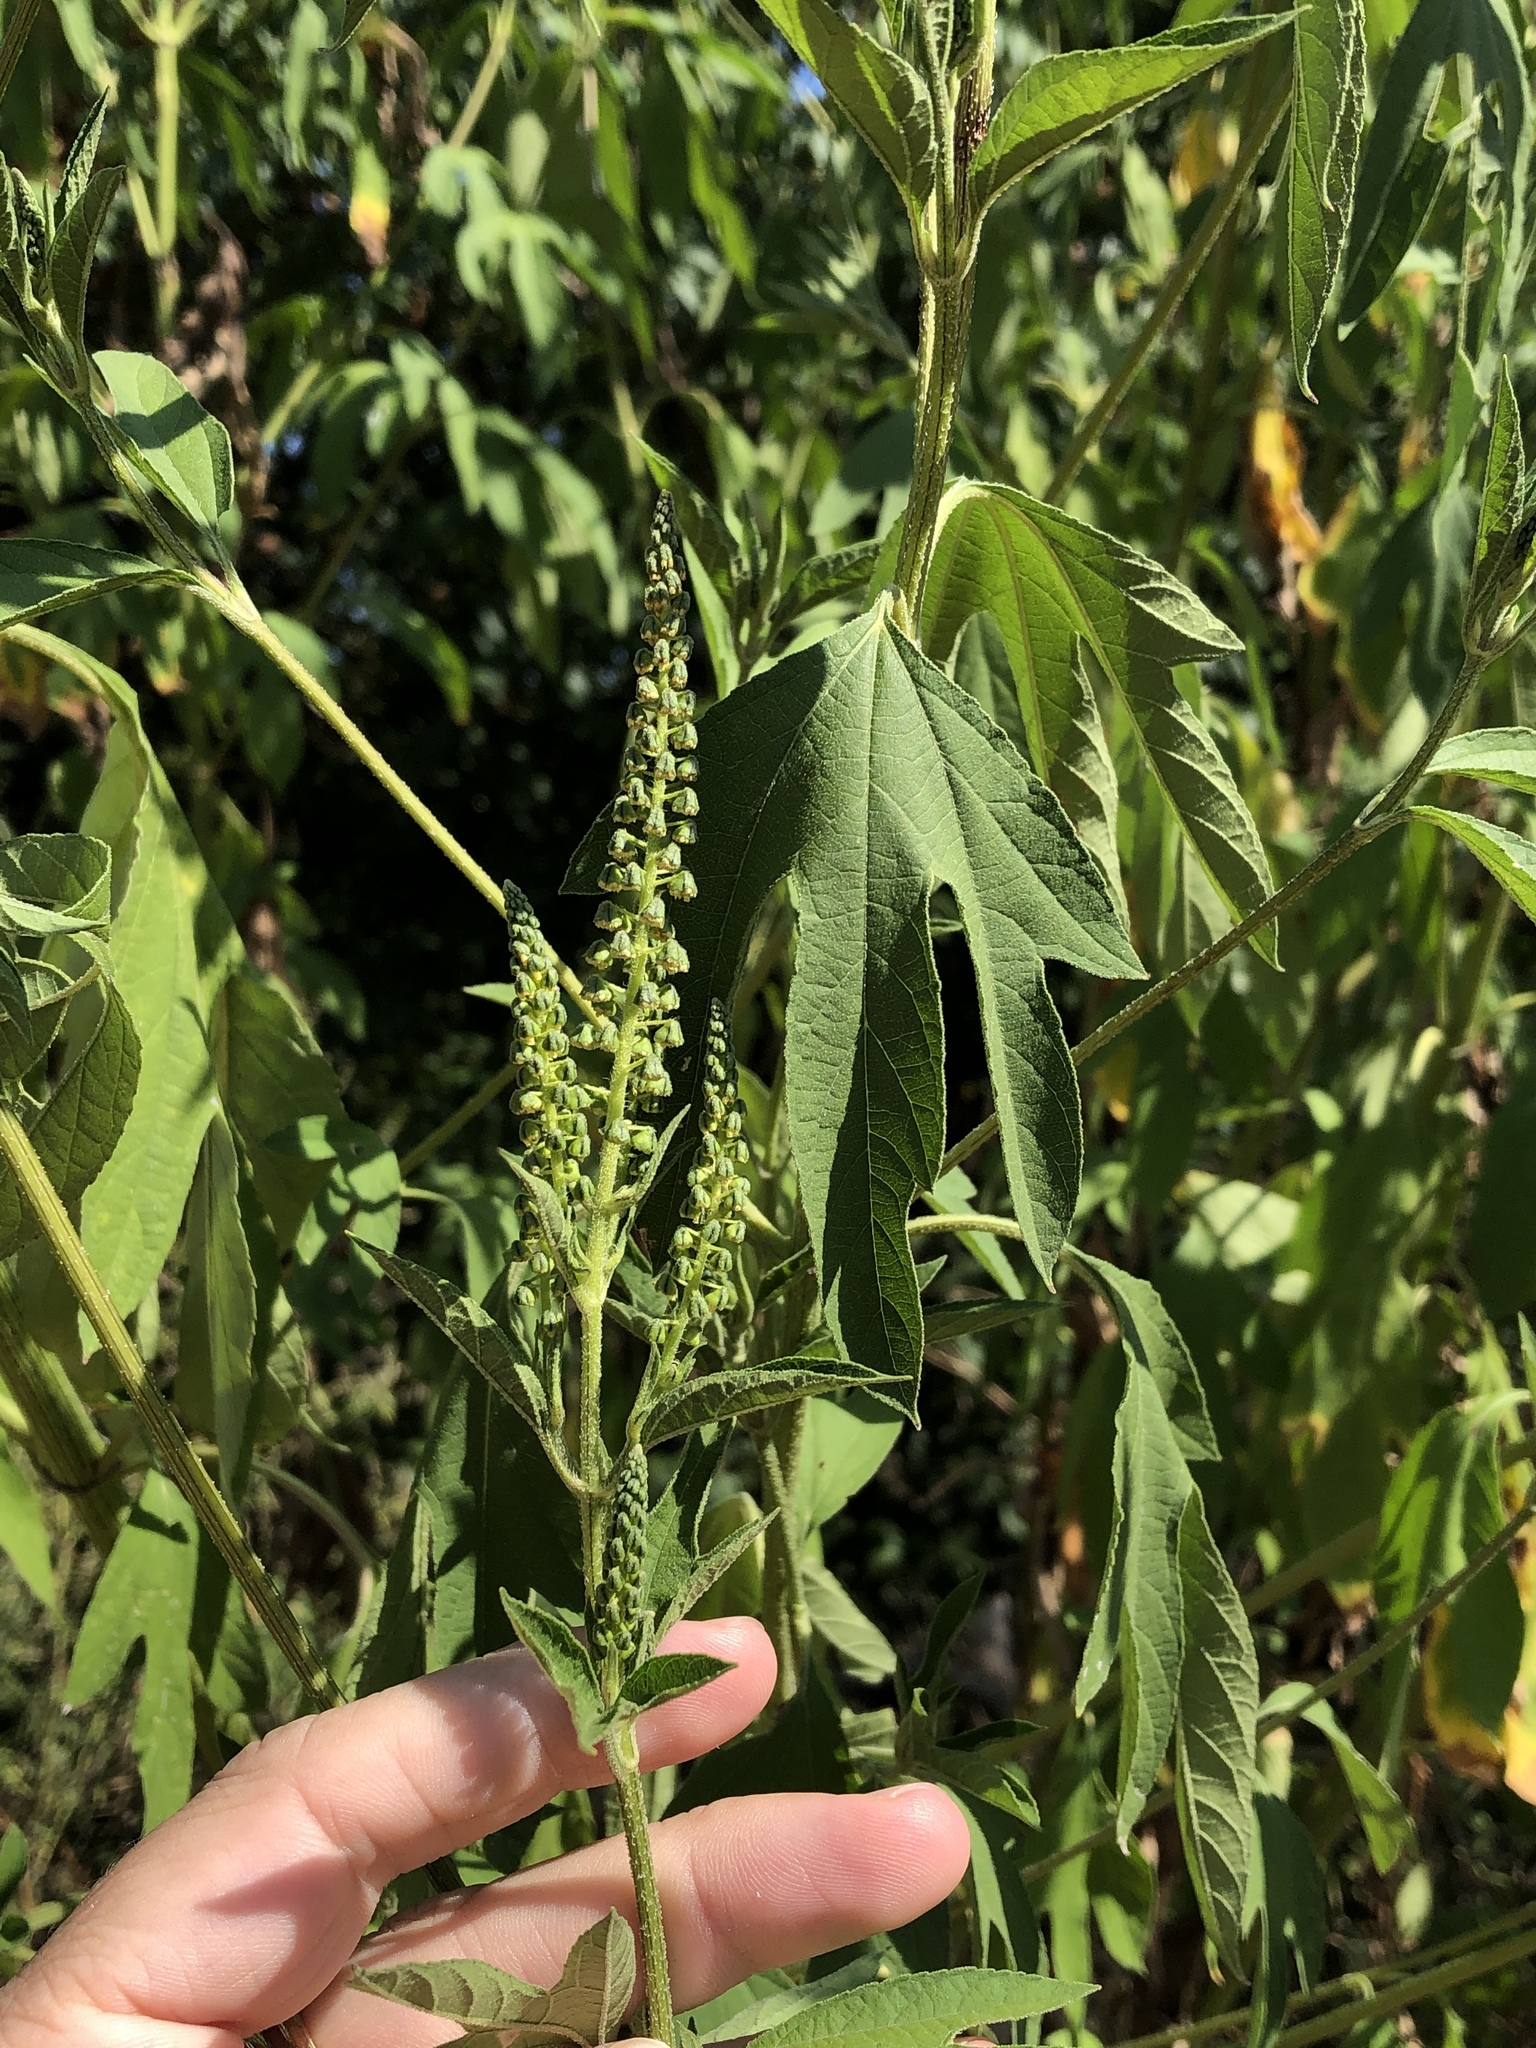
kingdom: Plantae
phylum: Tracheophyta
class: Magnoliopsida
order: Asterales
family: Asteraceae
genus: Ambrosia
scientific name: Ambrosia trifida
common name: Giant ragweed
